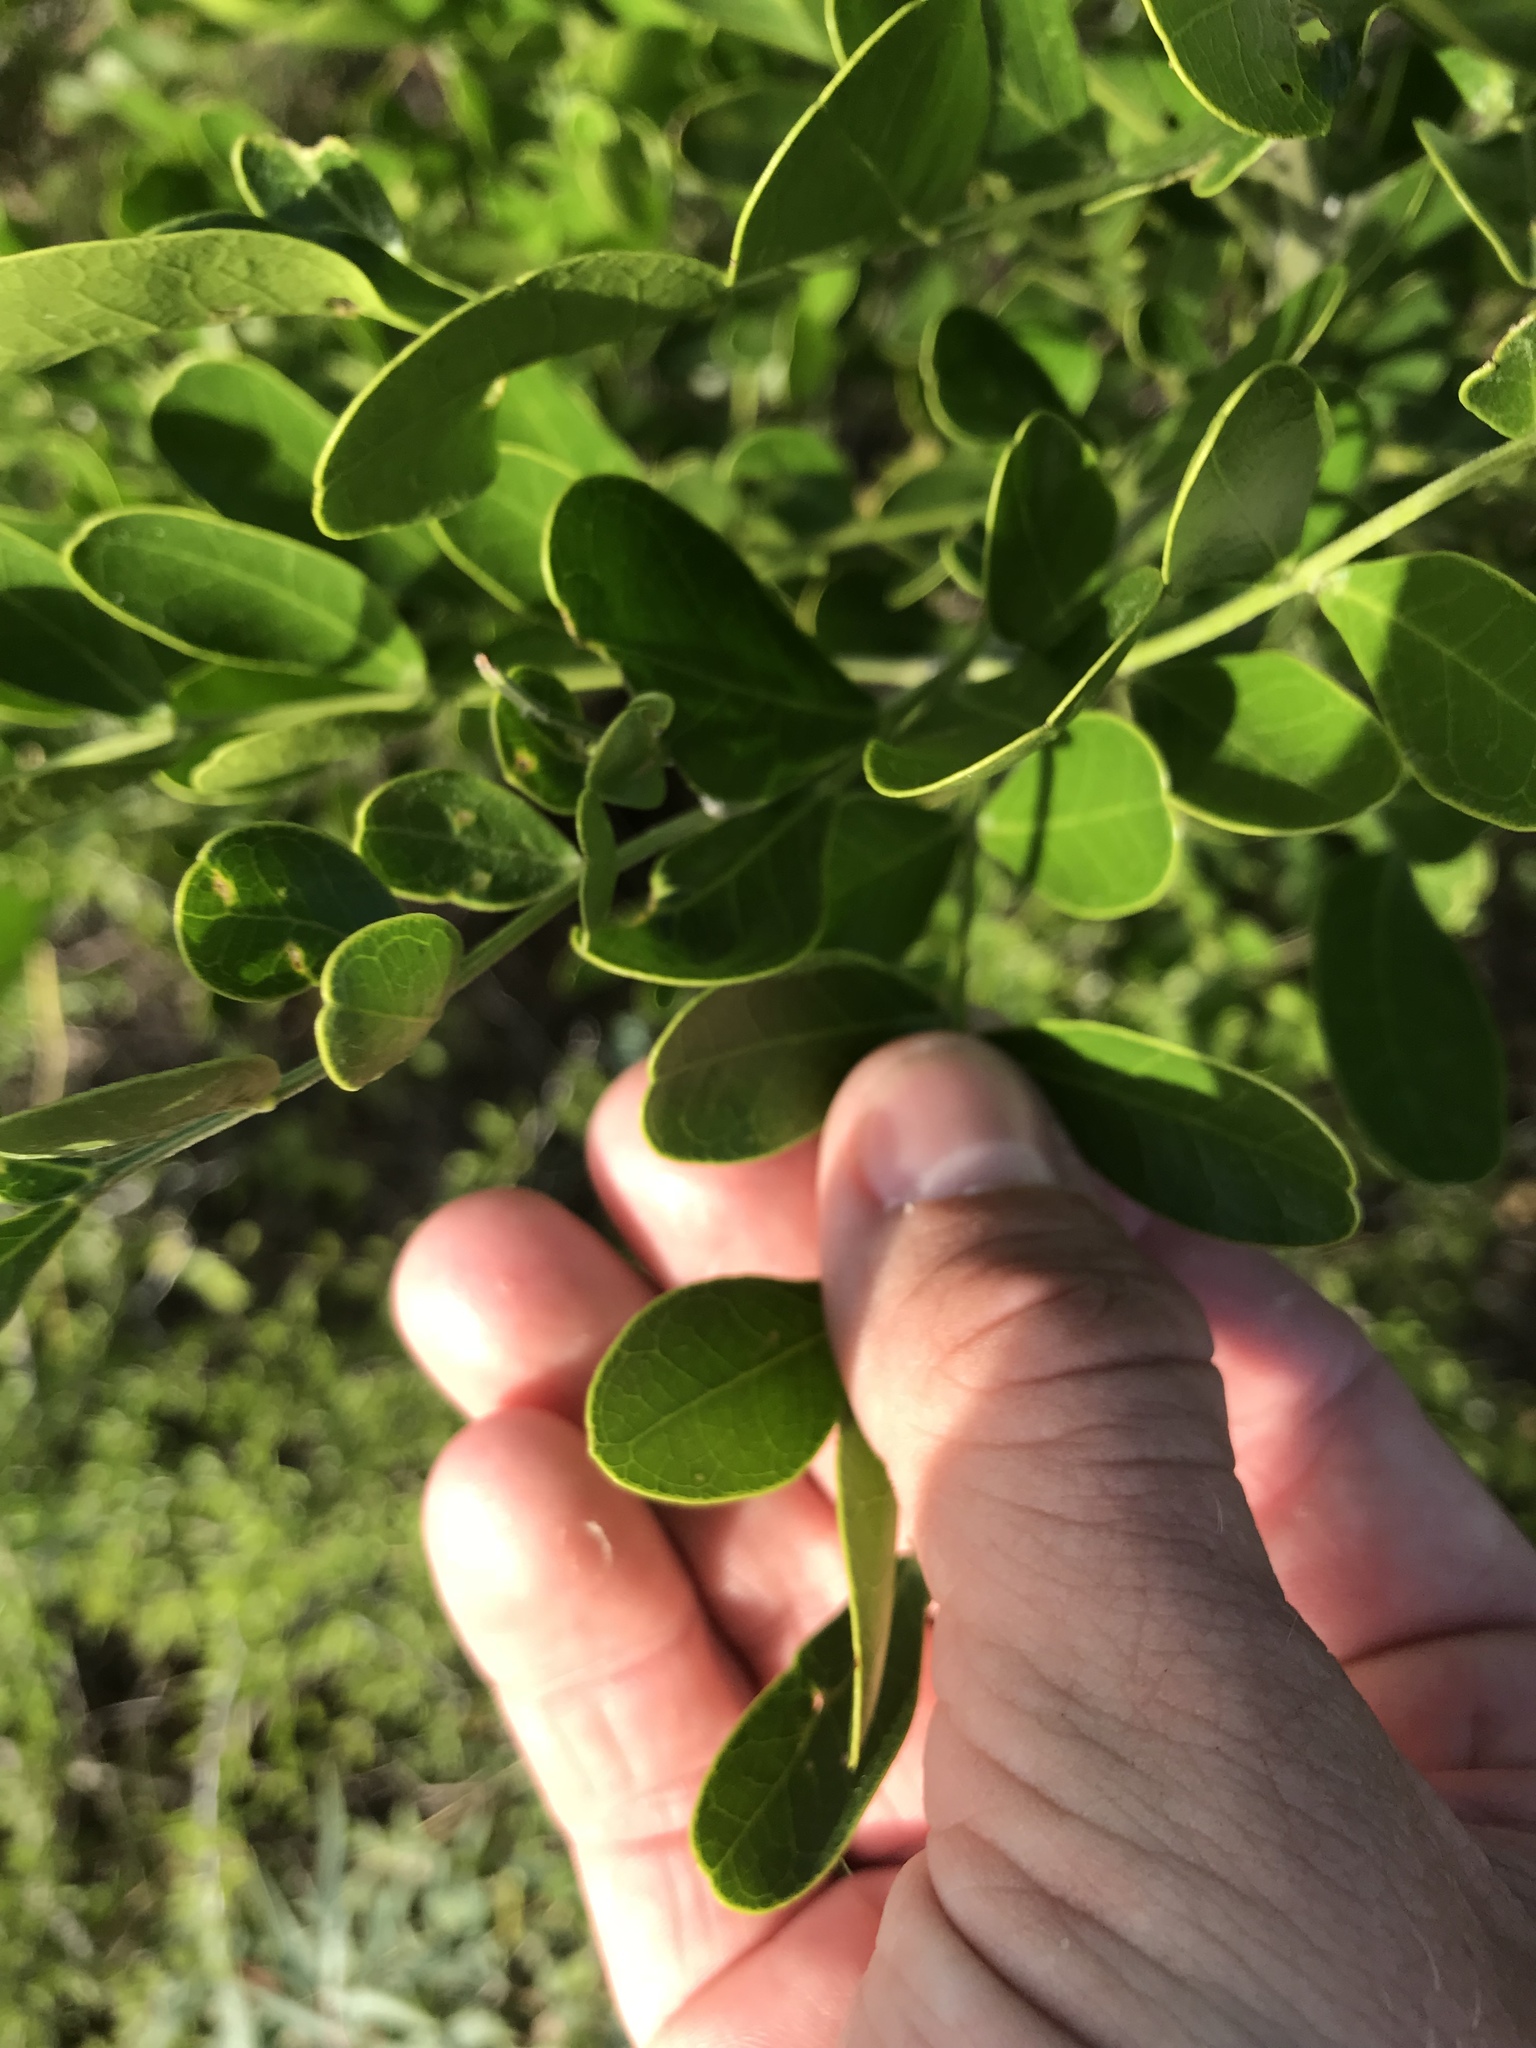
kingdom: Plantae
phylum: Tracheophyta
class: Magnoliopsida
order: Fabales
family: Fabaceae
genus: Dermatophyllum
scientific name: Dermatophyllum secundiflorum
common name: Texas-mountain-laurel
